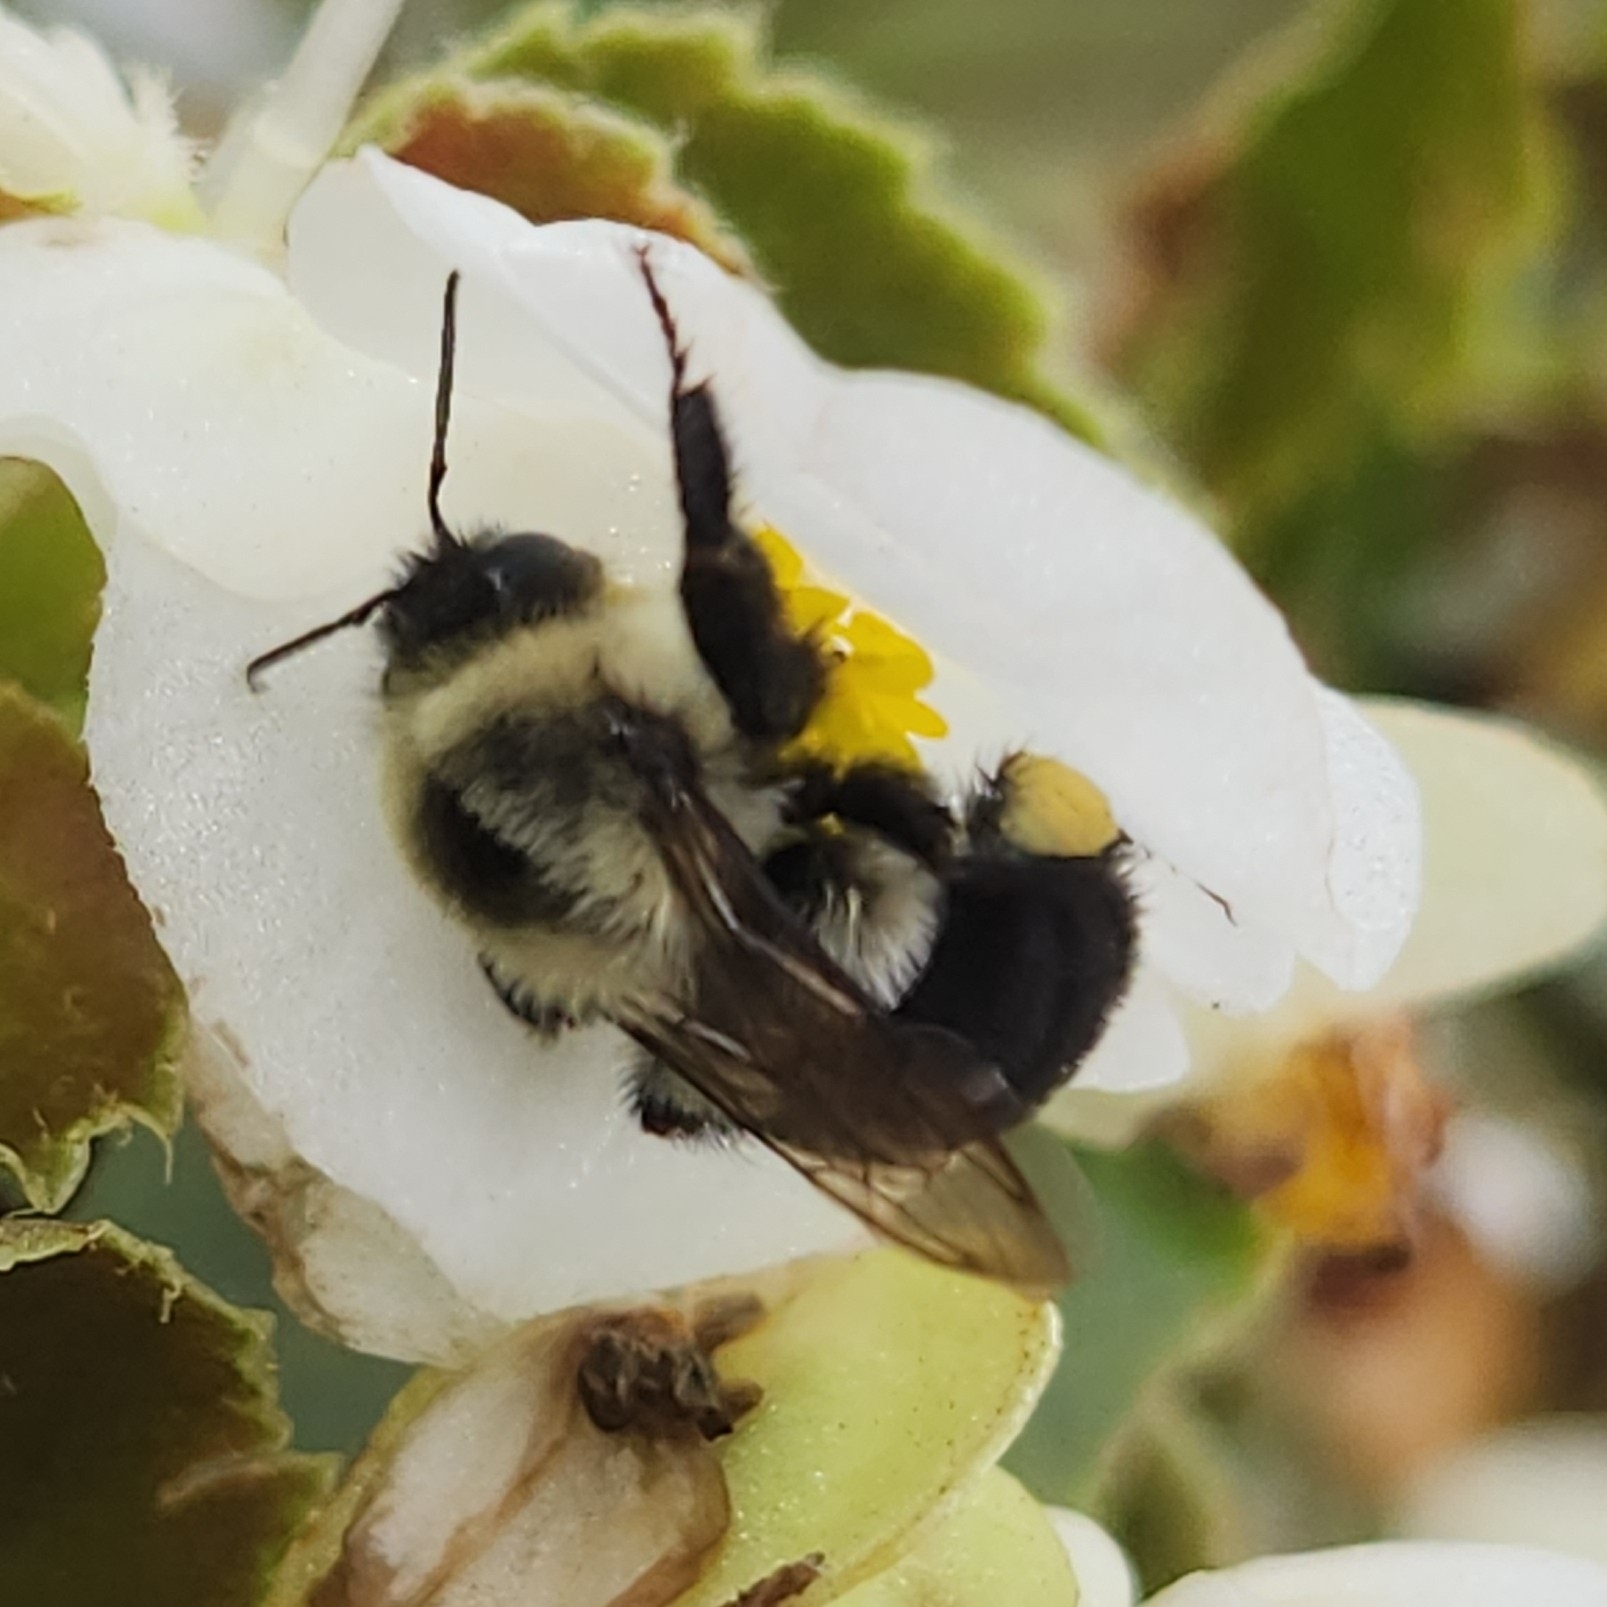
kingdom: Animalia
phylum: Arthropoda
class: Insecta
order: Hymenoptera
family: Apidae
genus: Bombus
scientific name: Bombus impatiens
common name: Common eastern bumble bee
